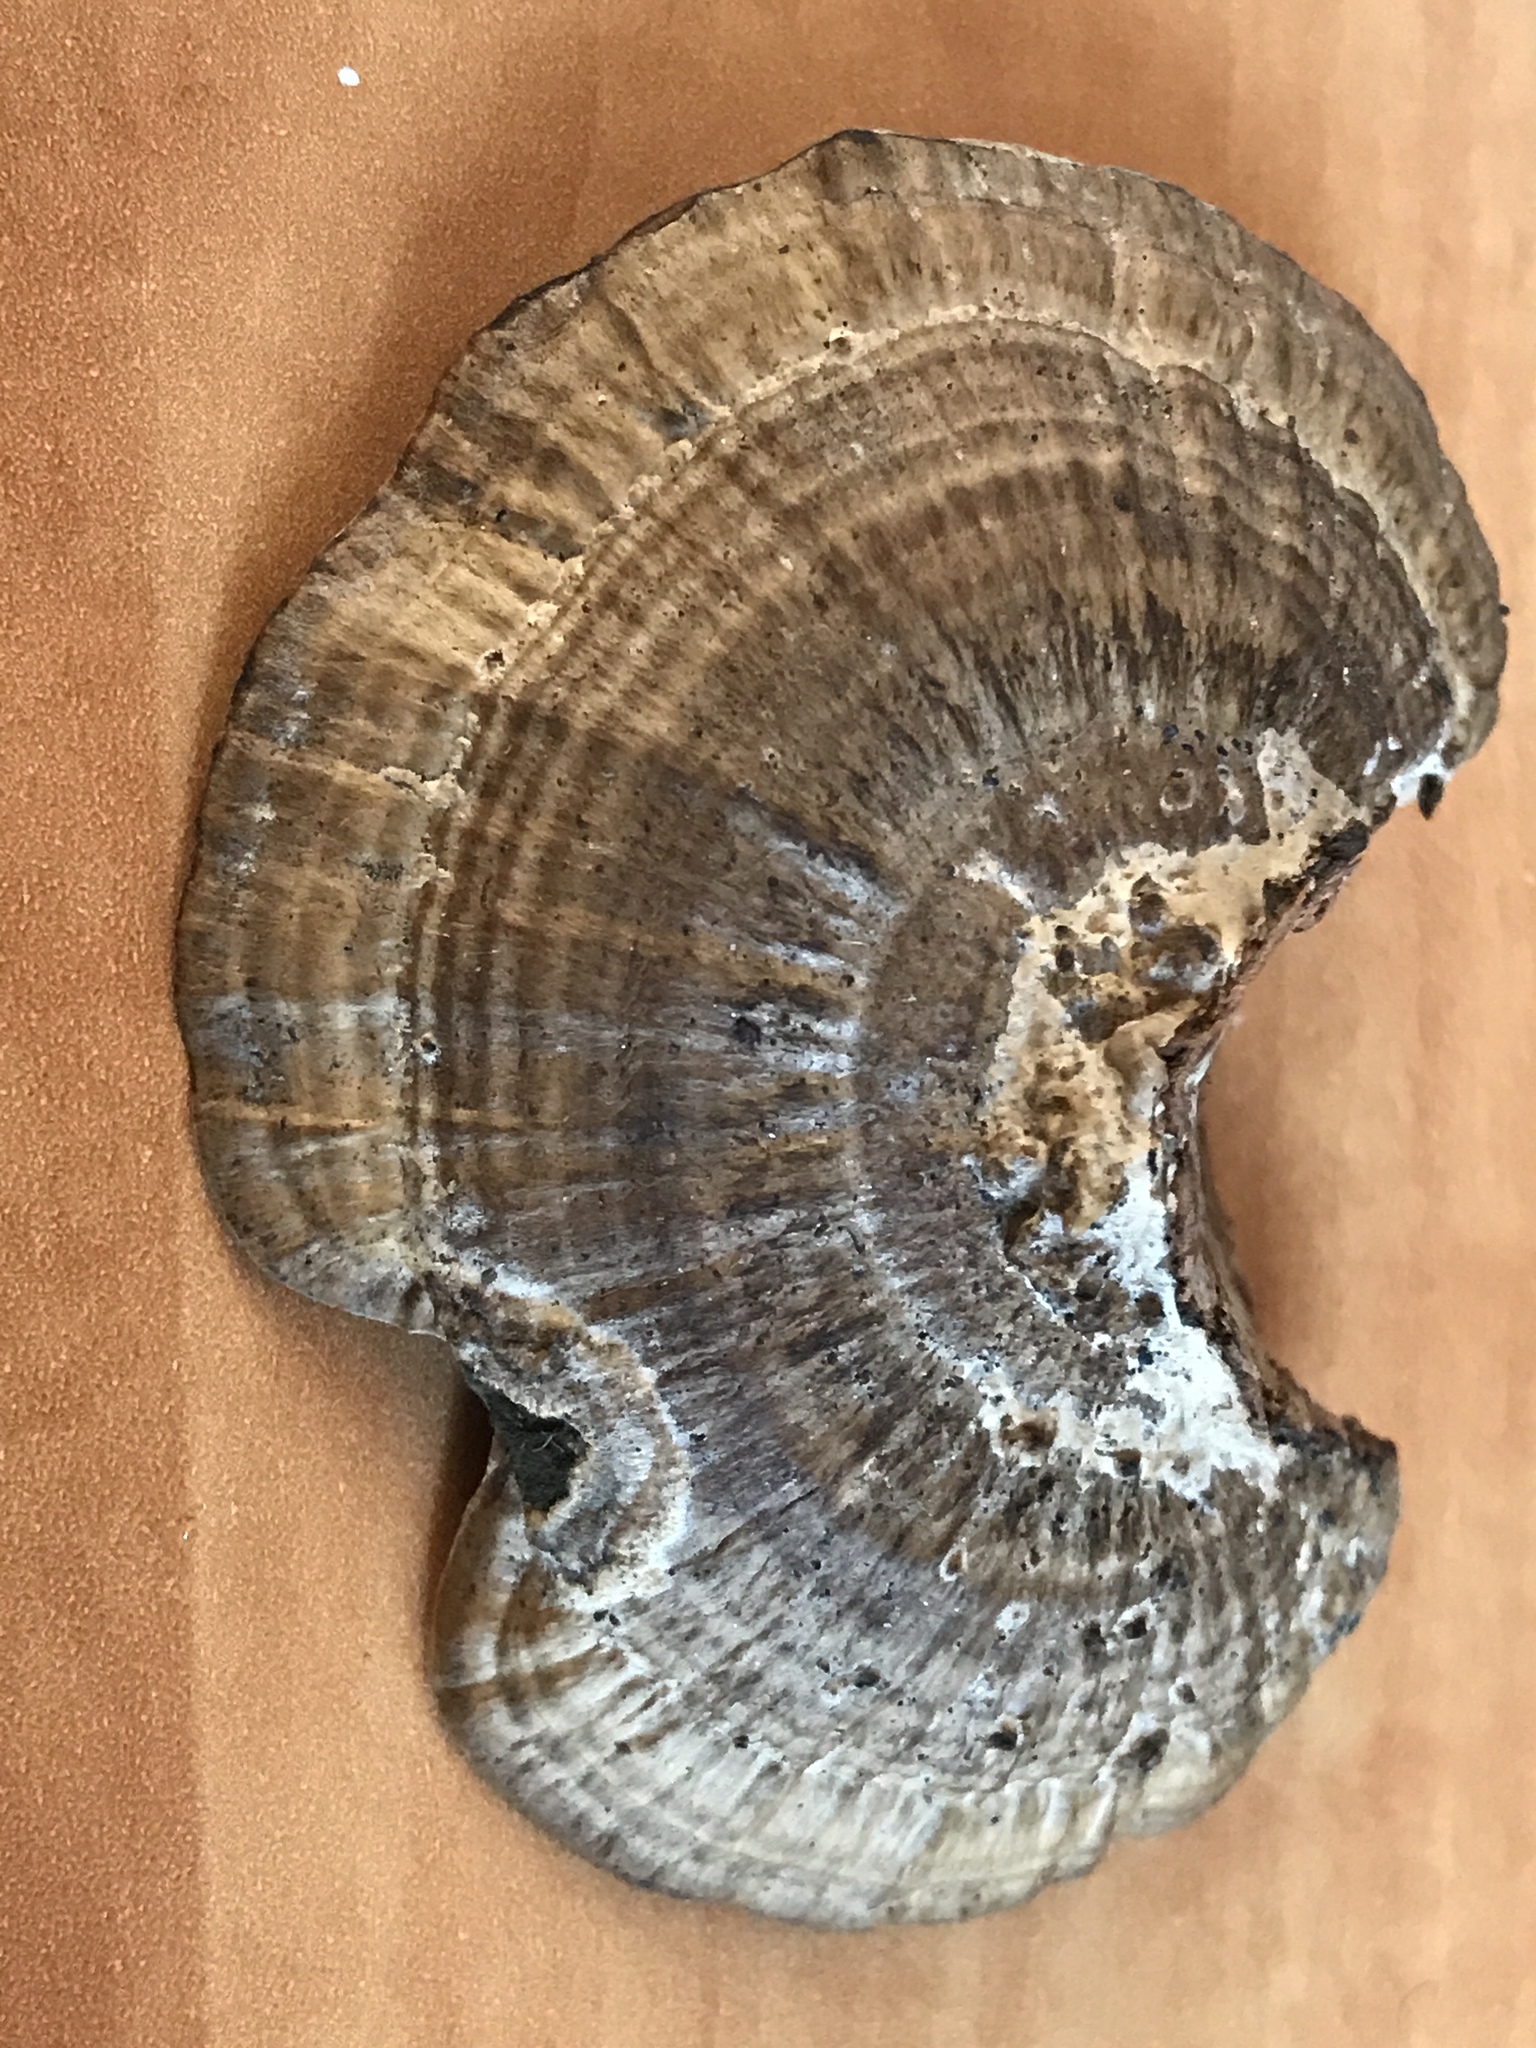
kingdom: Fungi
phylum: Basidiomycota
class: Agaricomycetes
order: Polyporales
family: Polyporaceae
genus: Daedaleopsis
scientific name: Daedaleopsis confragosa
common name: Blushing bracket
